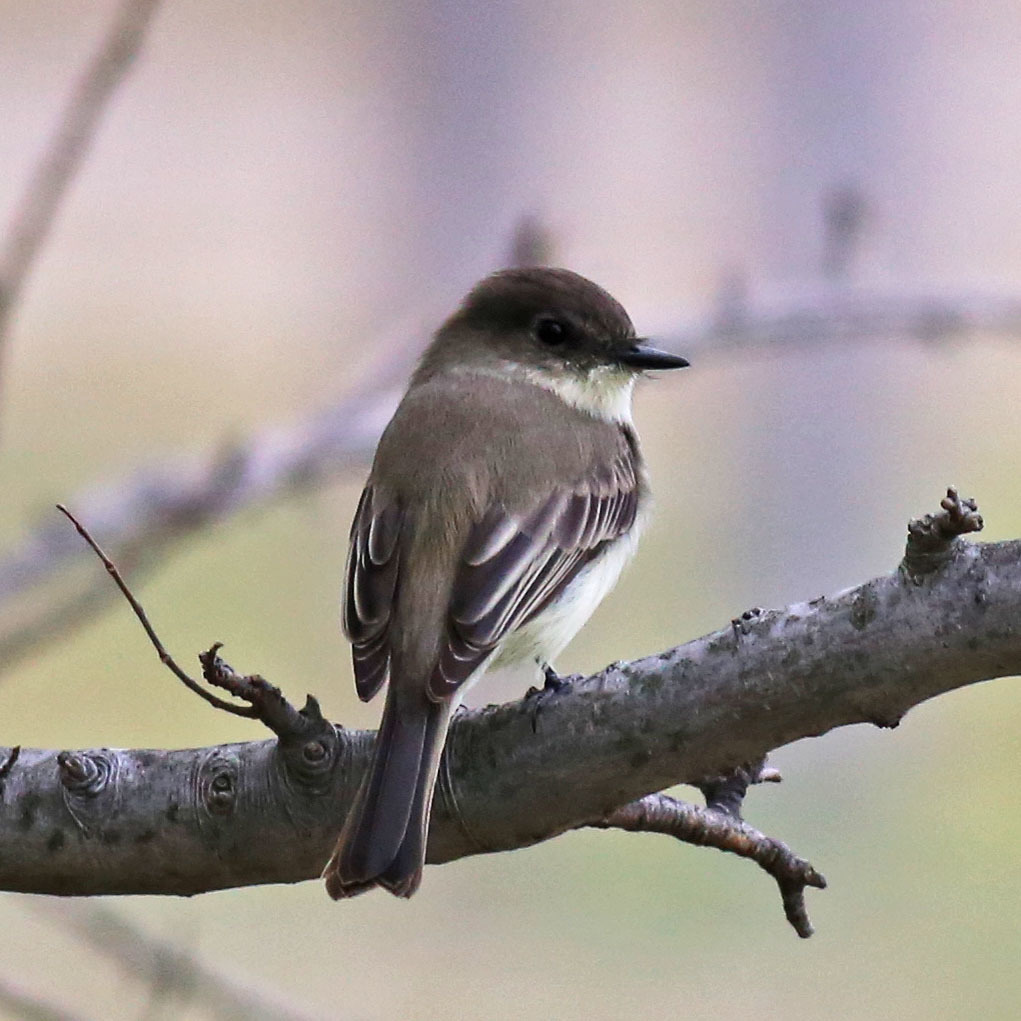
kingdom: Animalia
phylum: Chordata
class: Aves
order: Passeriformes
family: Tyrannidae
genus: Sayornis
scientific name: Sayornis phoebe
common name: Eastern phoebe
